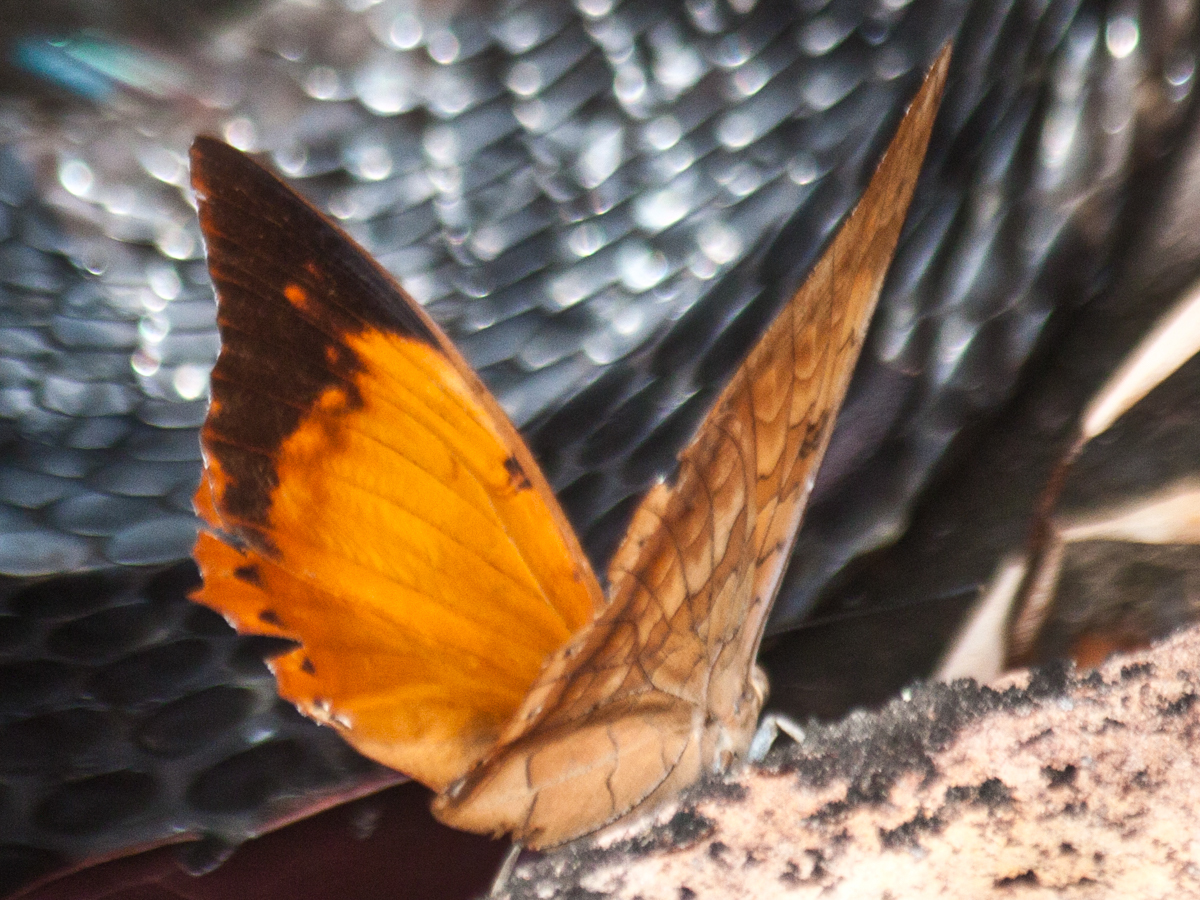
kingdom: Animalia
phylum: Arthropoda
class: Insecta
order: Lepidoptera
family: Nymphalidae
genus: Charaxes
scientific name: Charaxes bernardus
